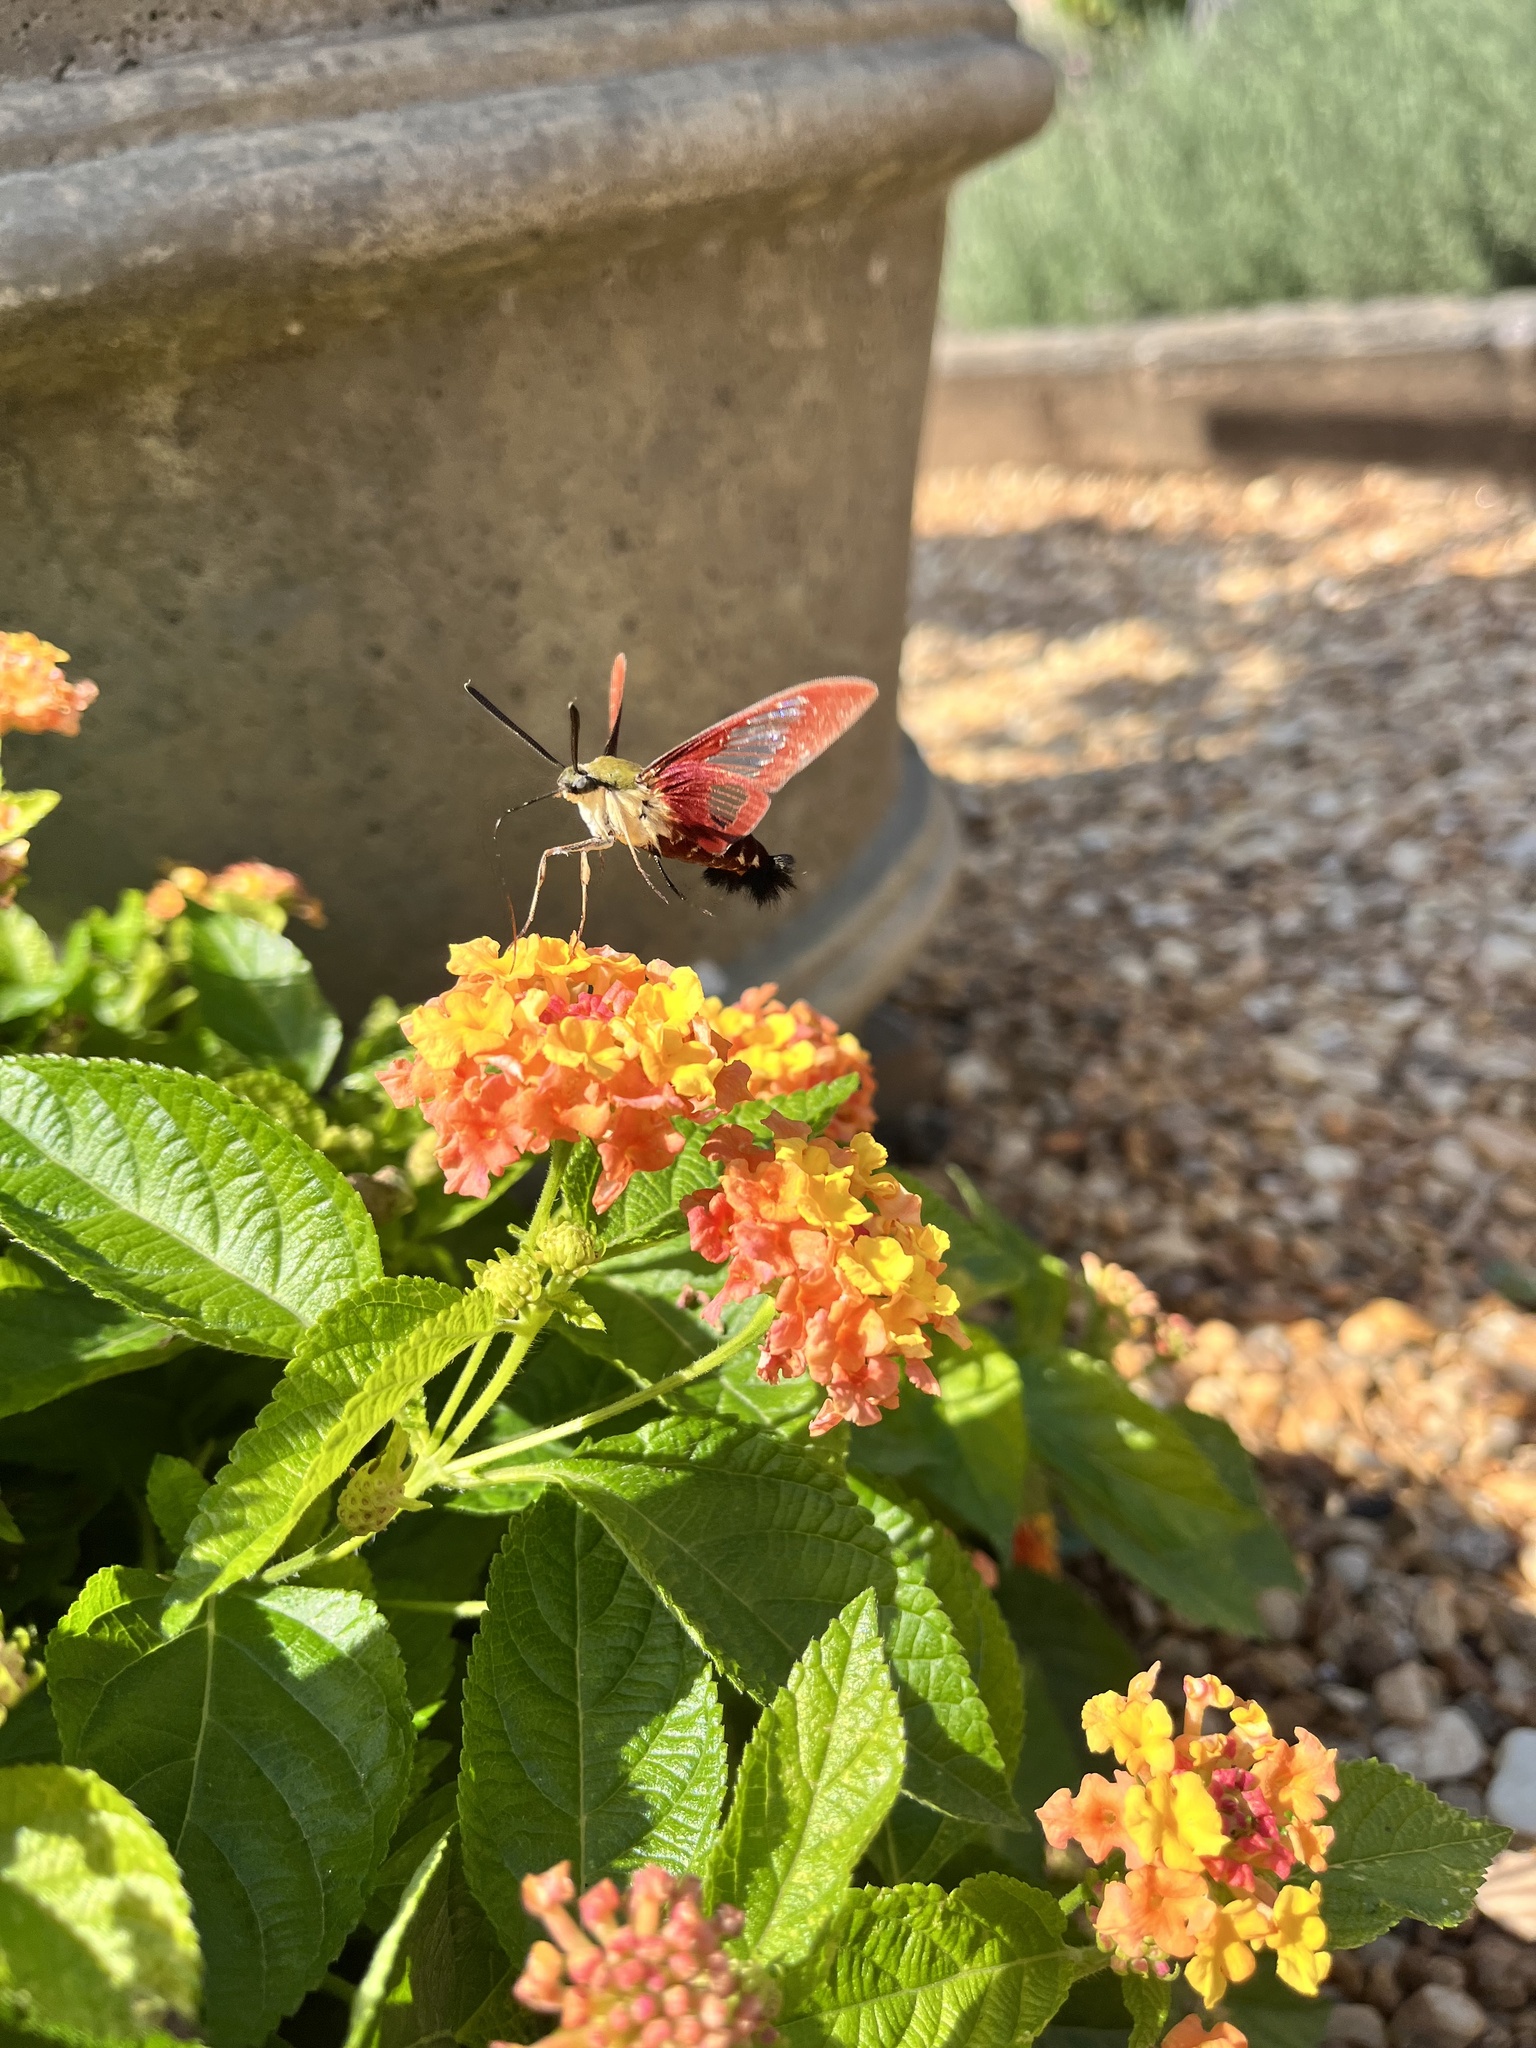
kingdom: Animalia
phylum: Arthropoda
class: Insecta
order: Lepidoptera
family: Sphingidae
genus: Hemaris
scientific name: Hemaris thysbe
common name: Common clear-wing
